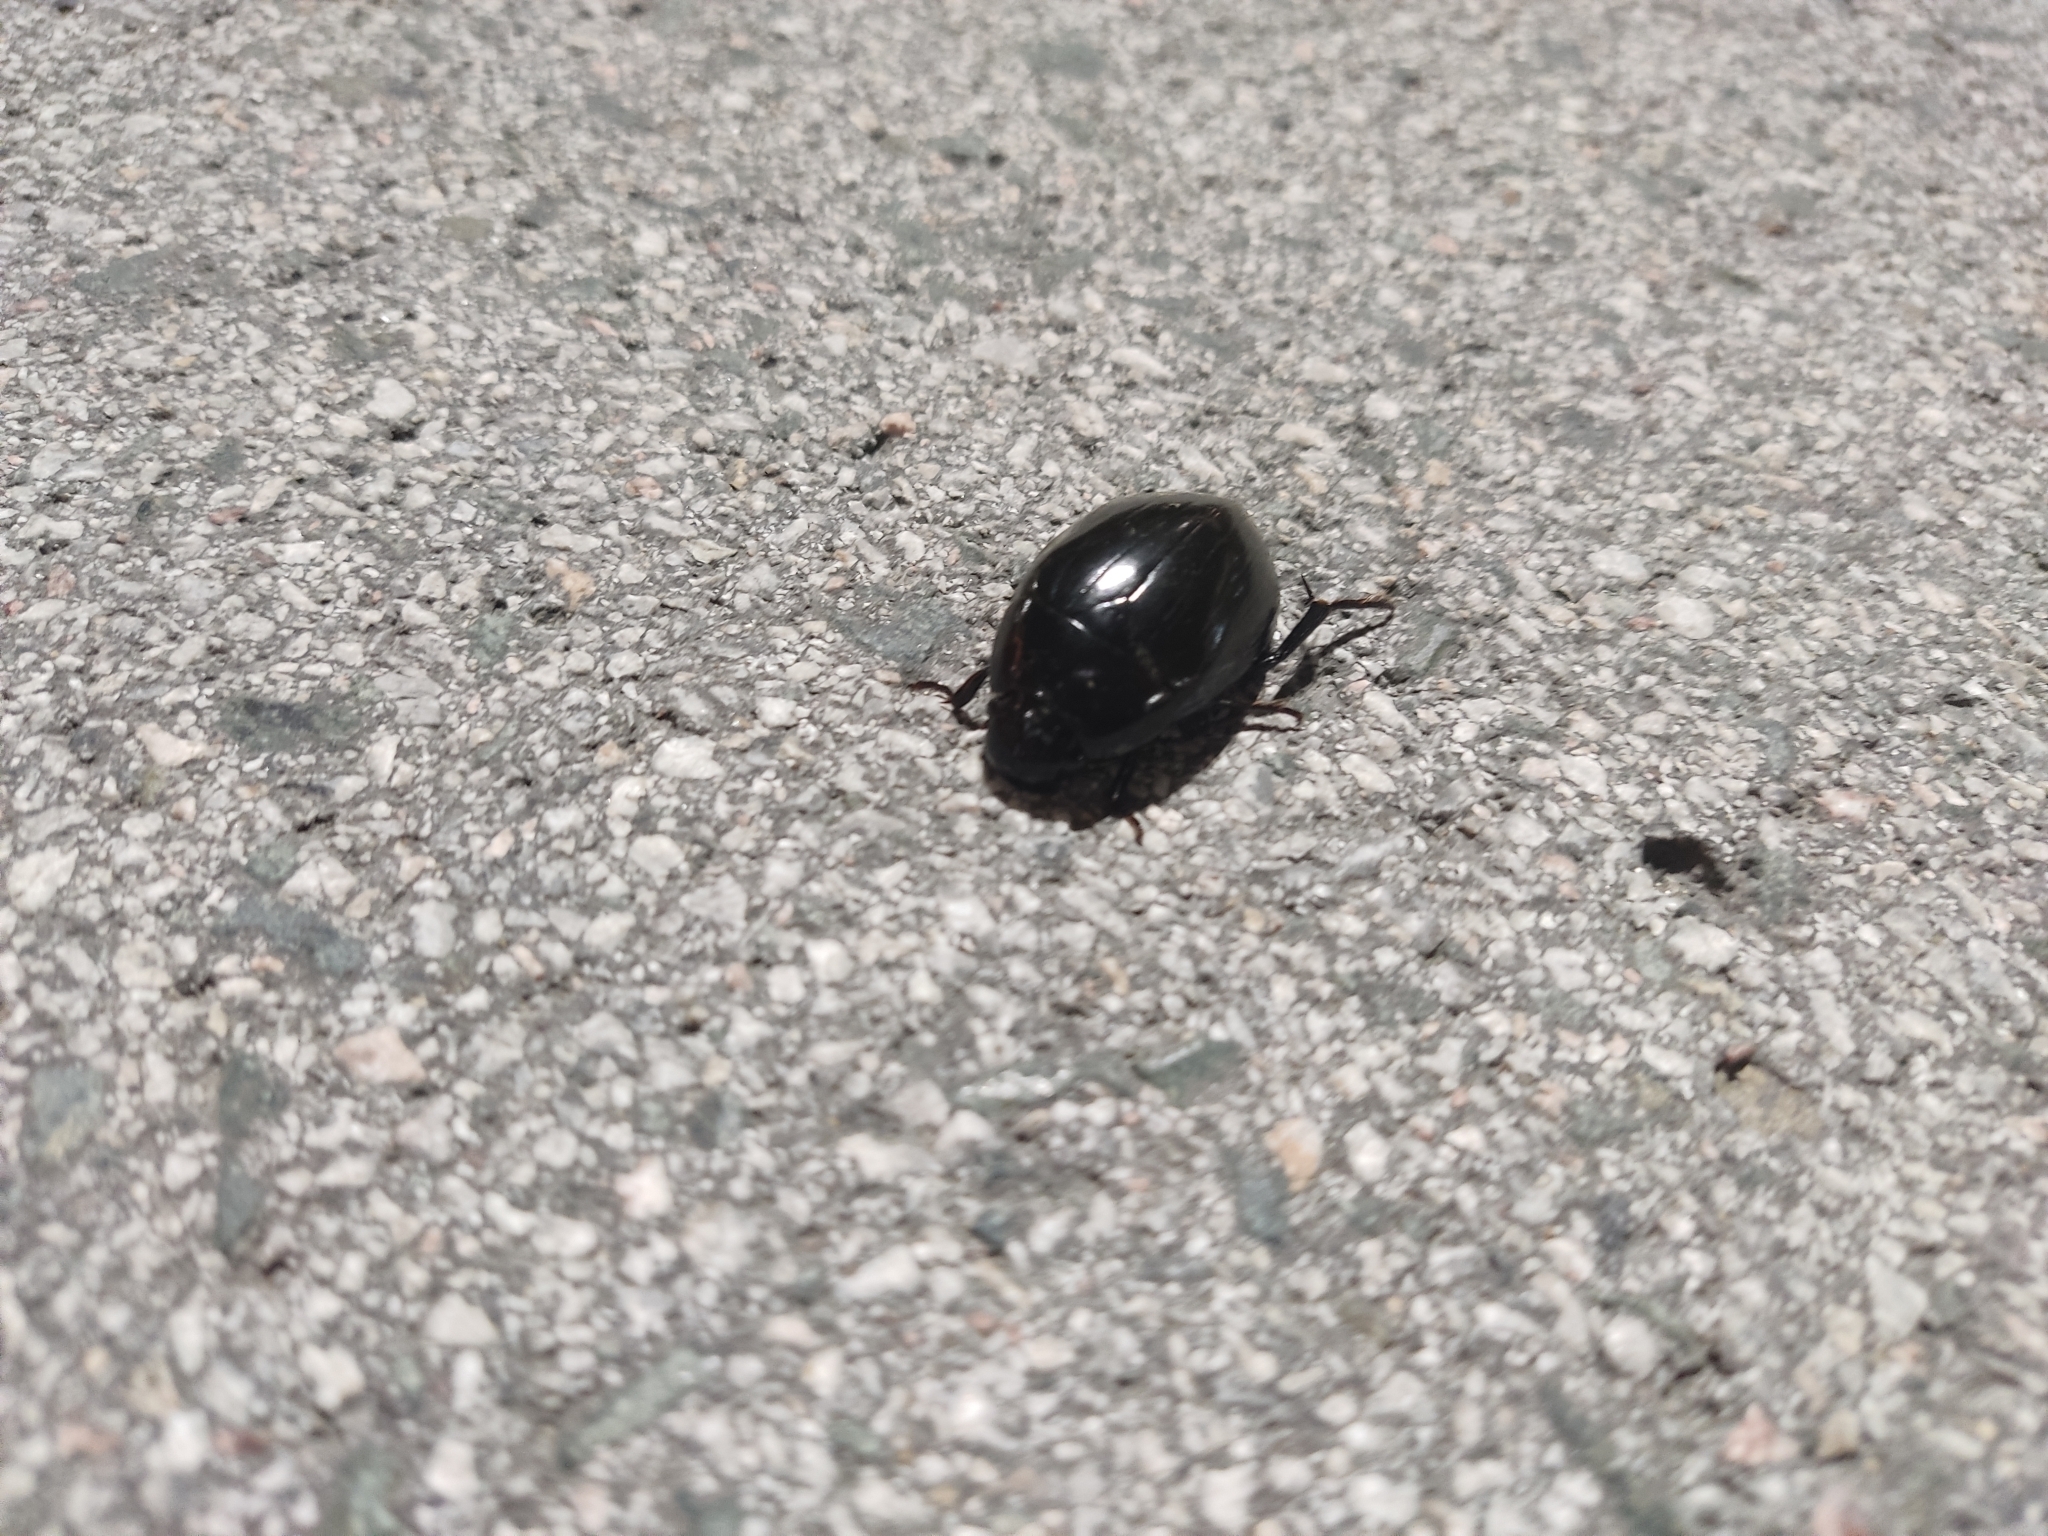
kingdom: Animalia
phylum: Arthropoda
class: Insecta
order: Coleoptera
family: Hydrophilidae
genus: Hydrophilus
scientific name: Hydrophilus
